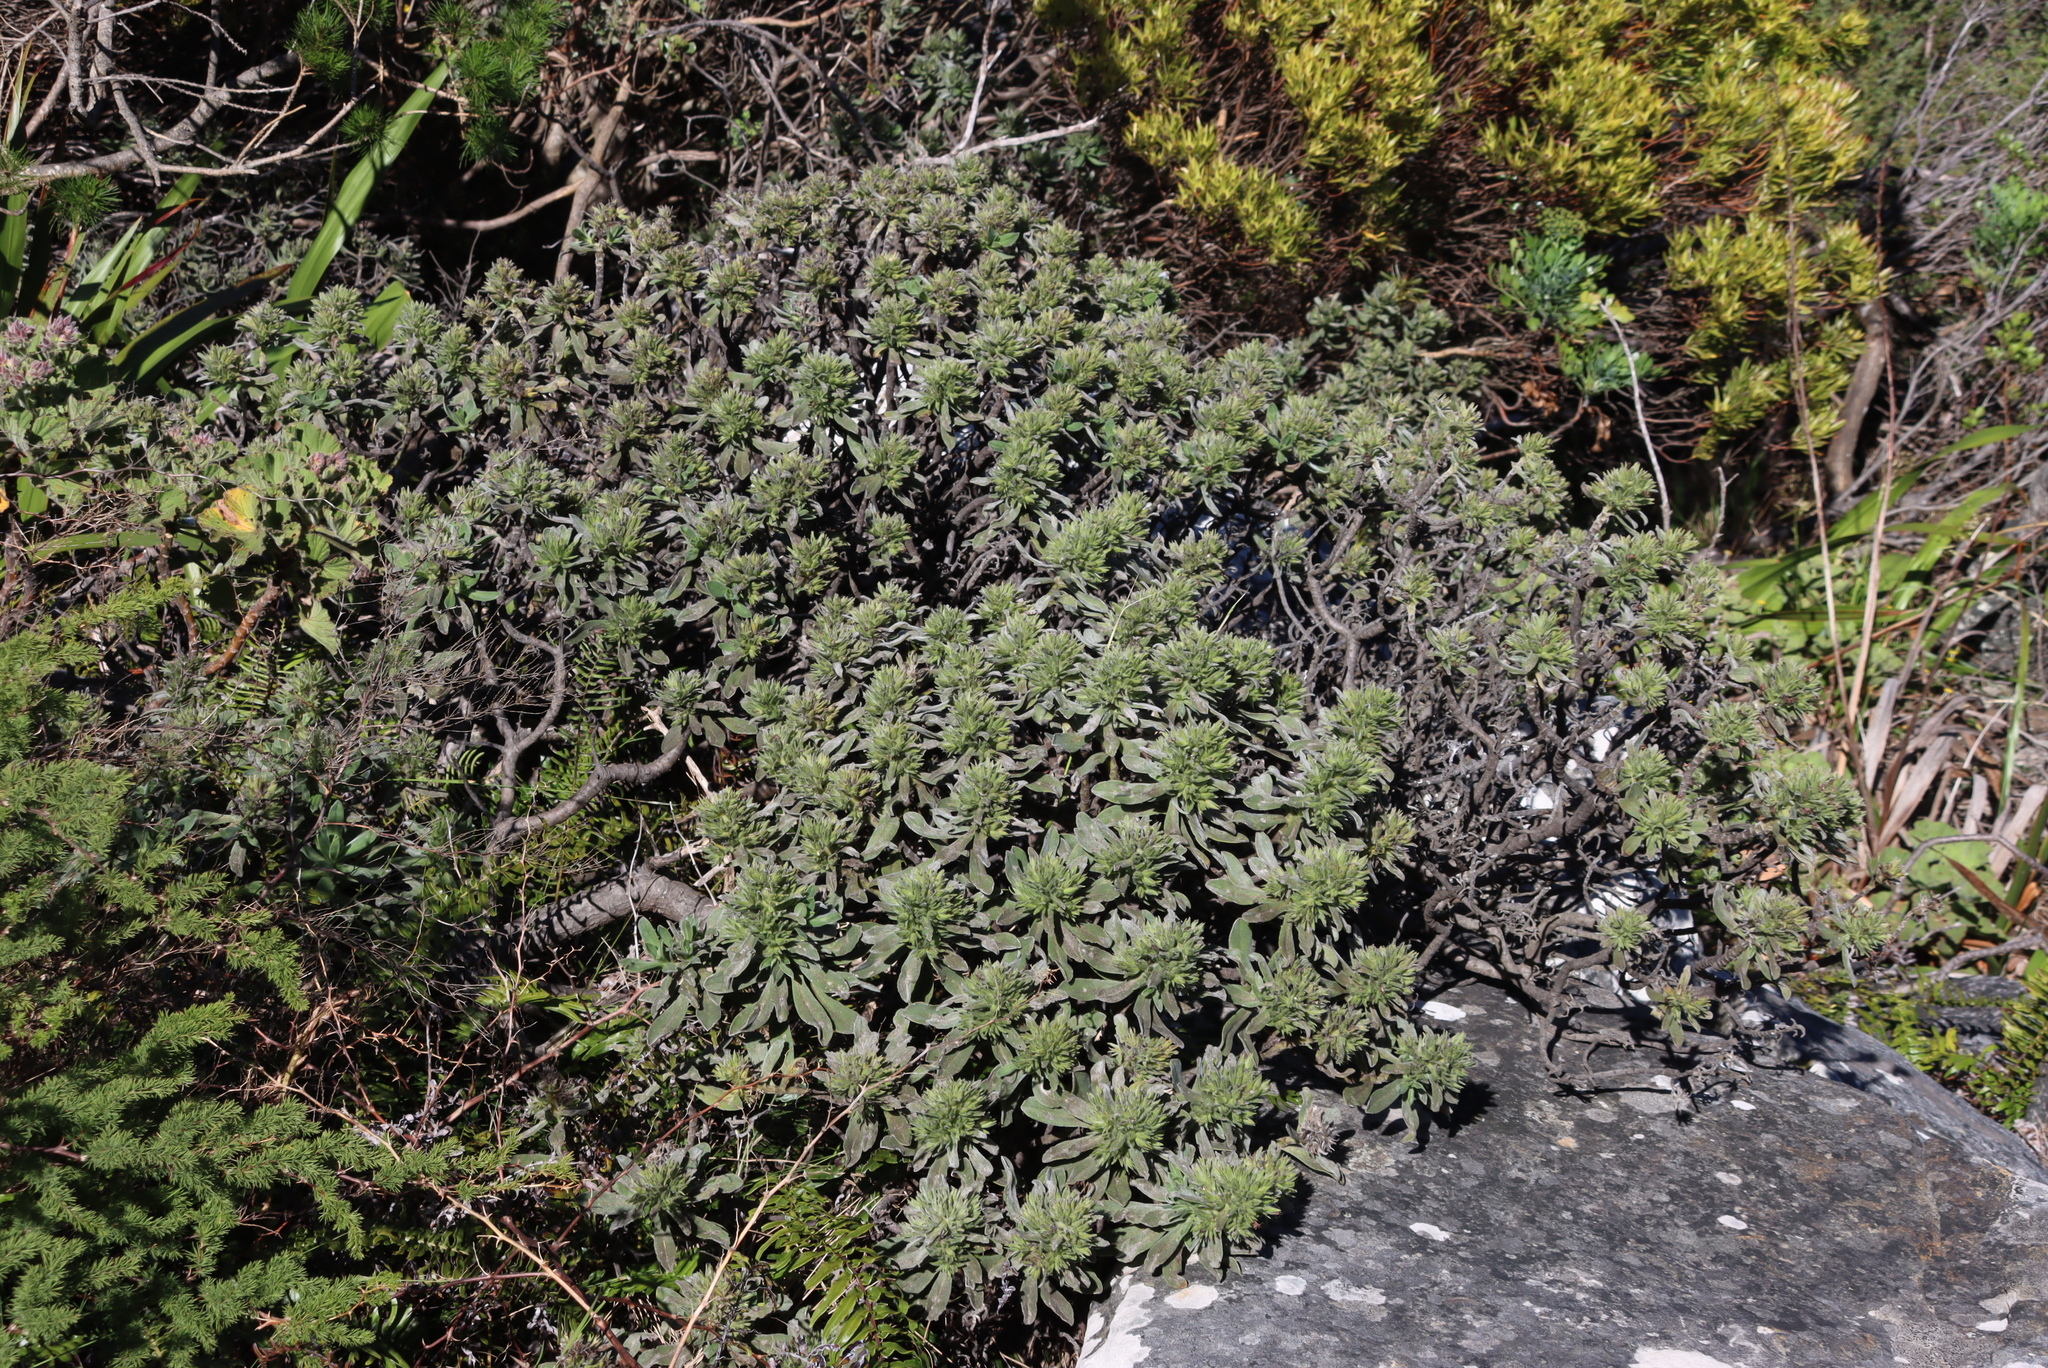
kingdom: Plantae
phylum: Tracheophyta
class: Magnoliopsida
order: Boraginales
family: Boraginaceae
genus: Lobostemon
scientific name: Lobostemon montanus
